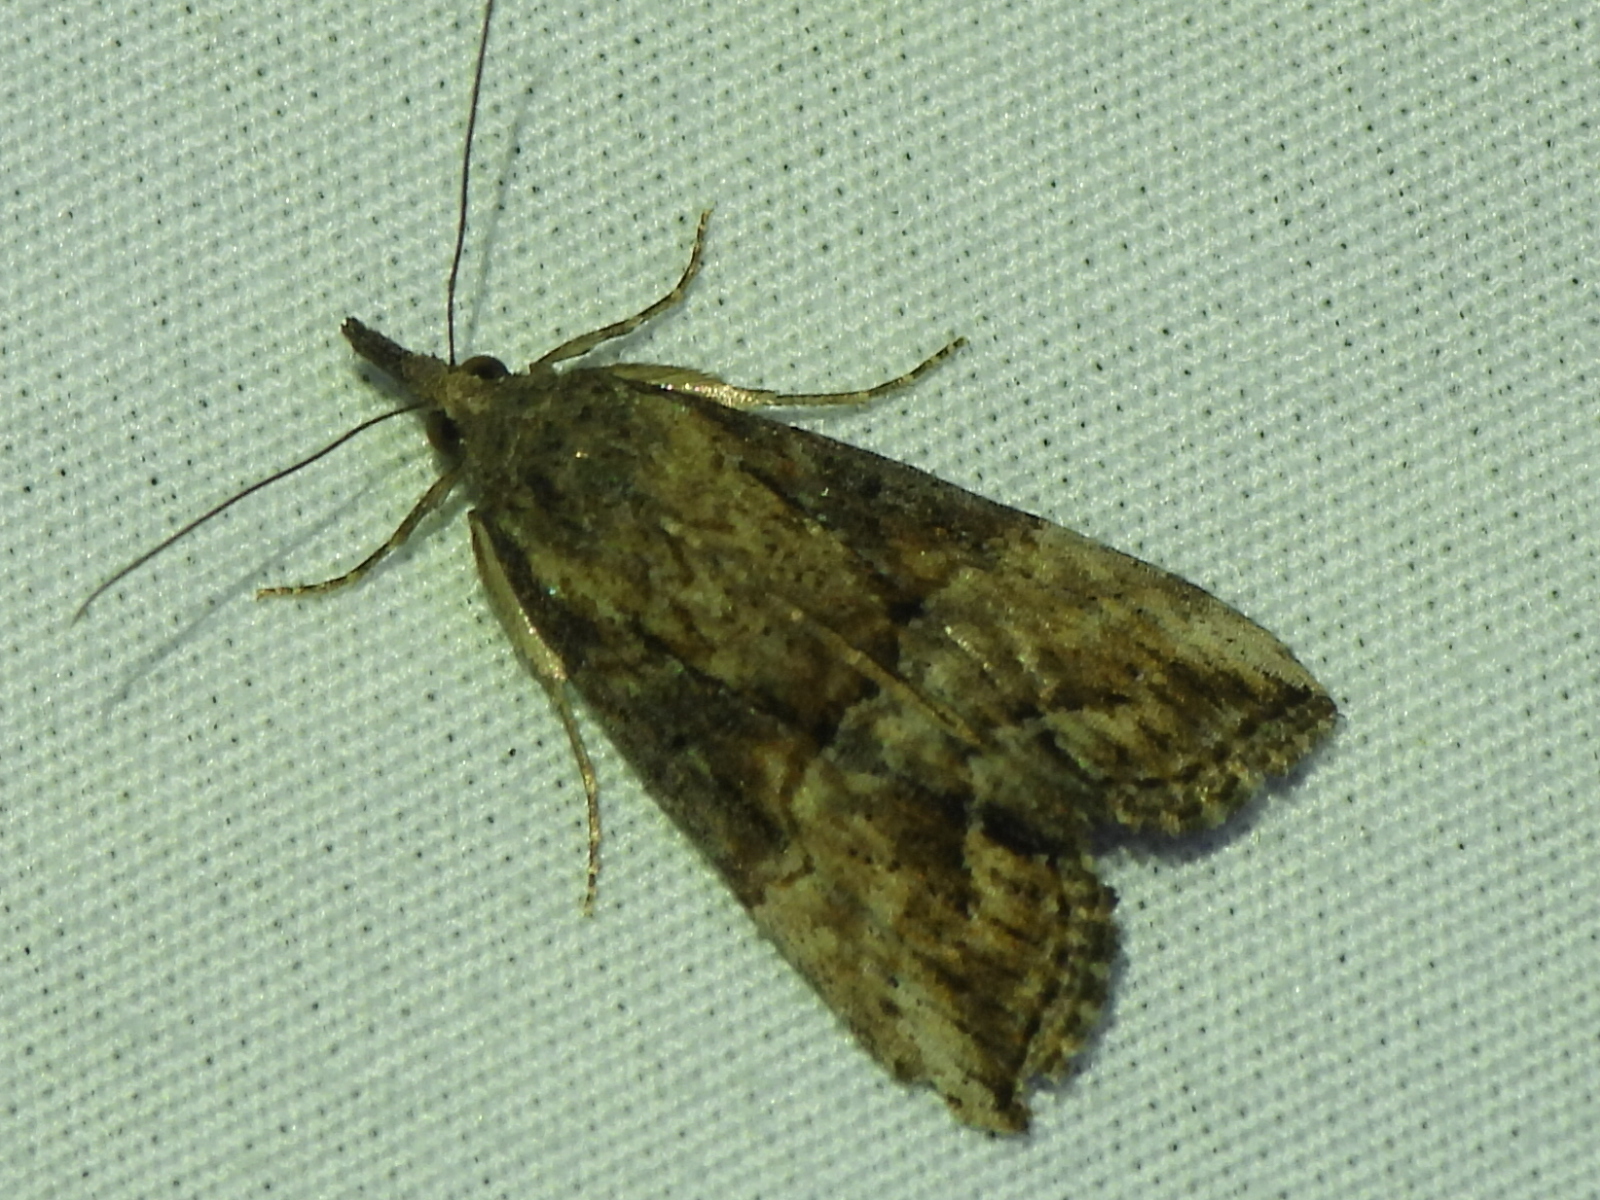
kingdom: Animalia
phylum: Arthropoda
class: Insecta
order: Lepidoptera
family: Erebidae
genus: Hypena
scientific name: Hypena scabra
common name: Green cloverworm
